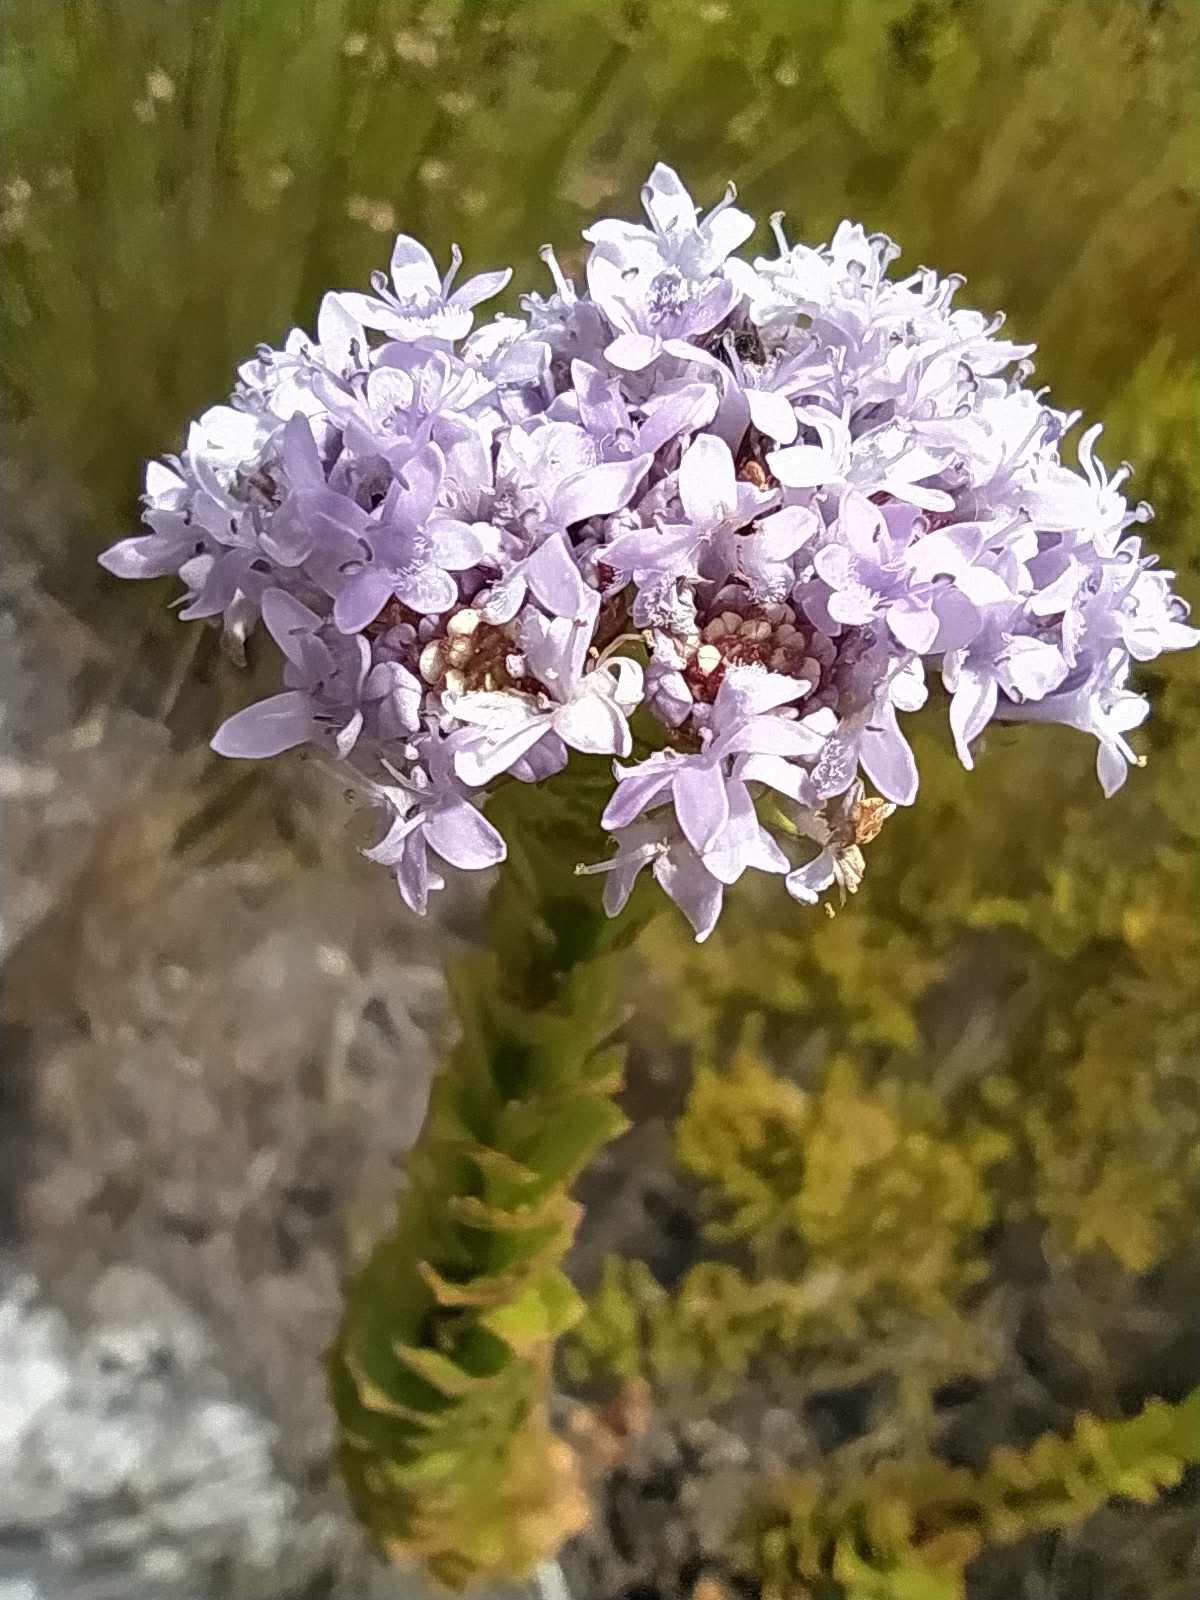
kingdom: Plantae
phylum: Tracheophyta
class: Magnoliopsida
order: Lamiales
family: Scrophulariaceae
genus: Pseudoselago
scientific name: Pseudoselago serrata
